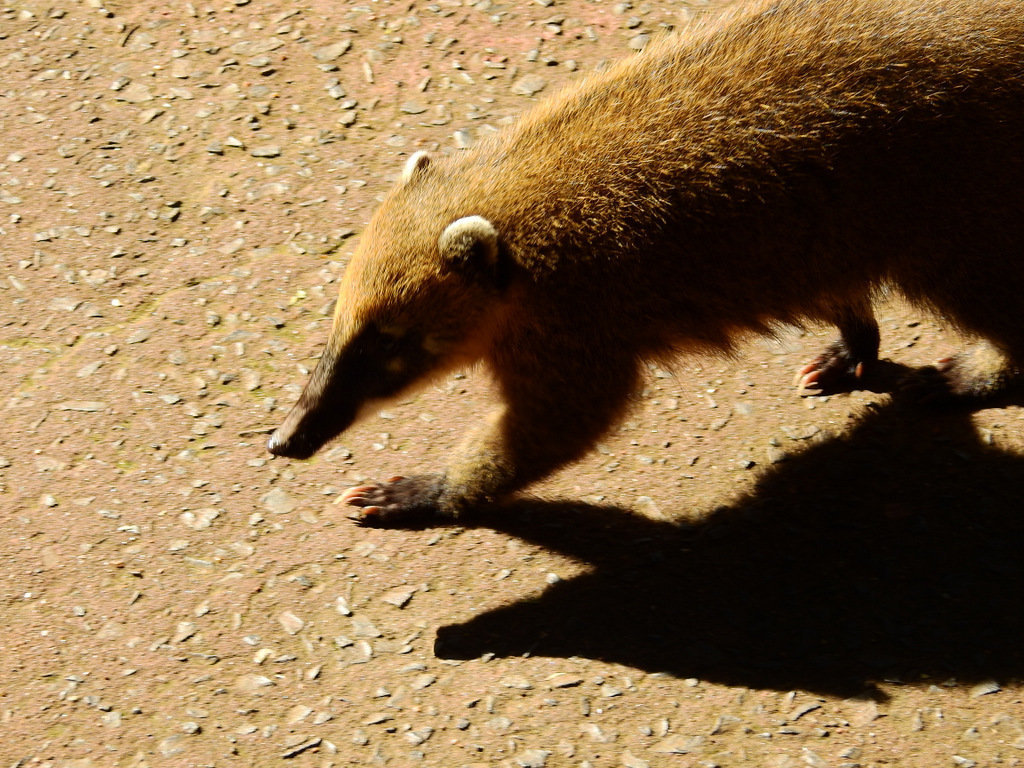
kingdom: Animalia
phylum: Chordata
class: Mammalia
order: Carnivora
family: Procyonidae
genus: Nasua
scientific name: Nasua nasua
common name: South american coati
